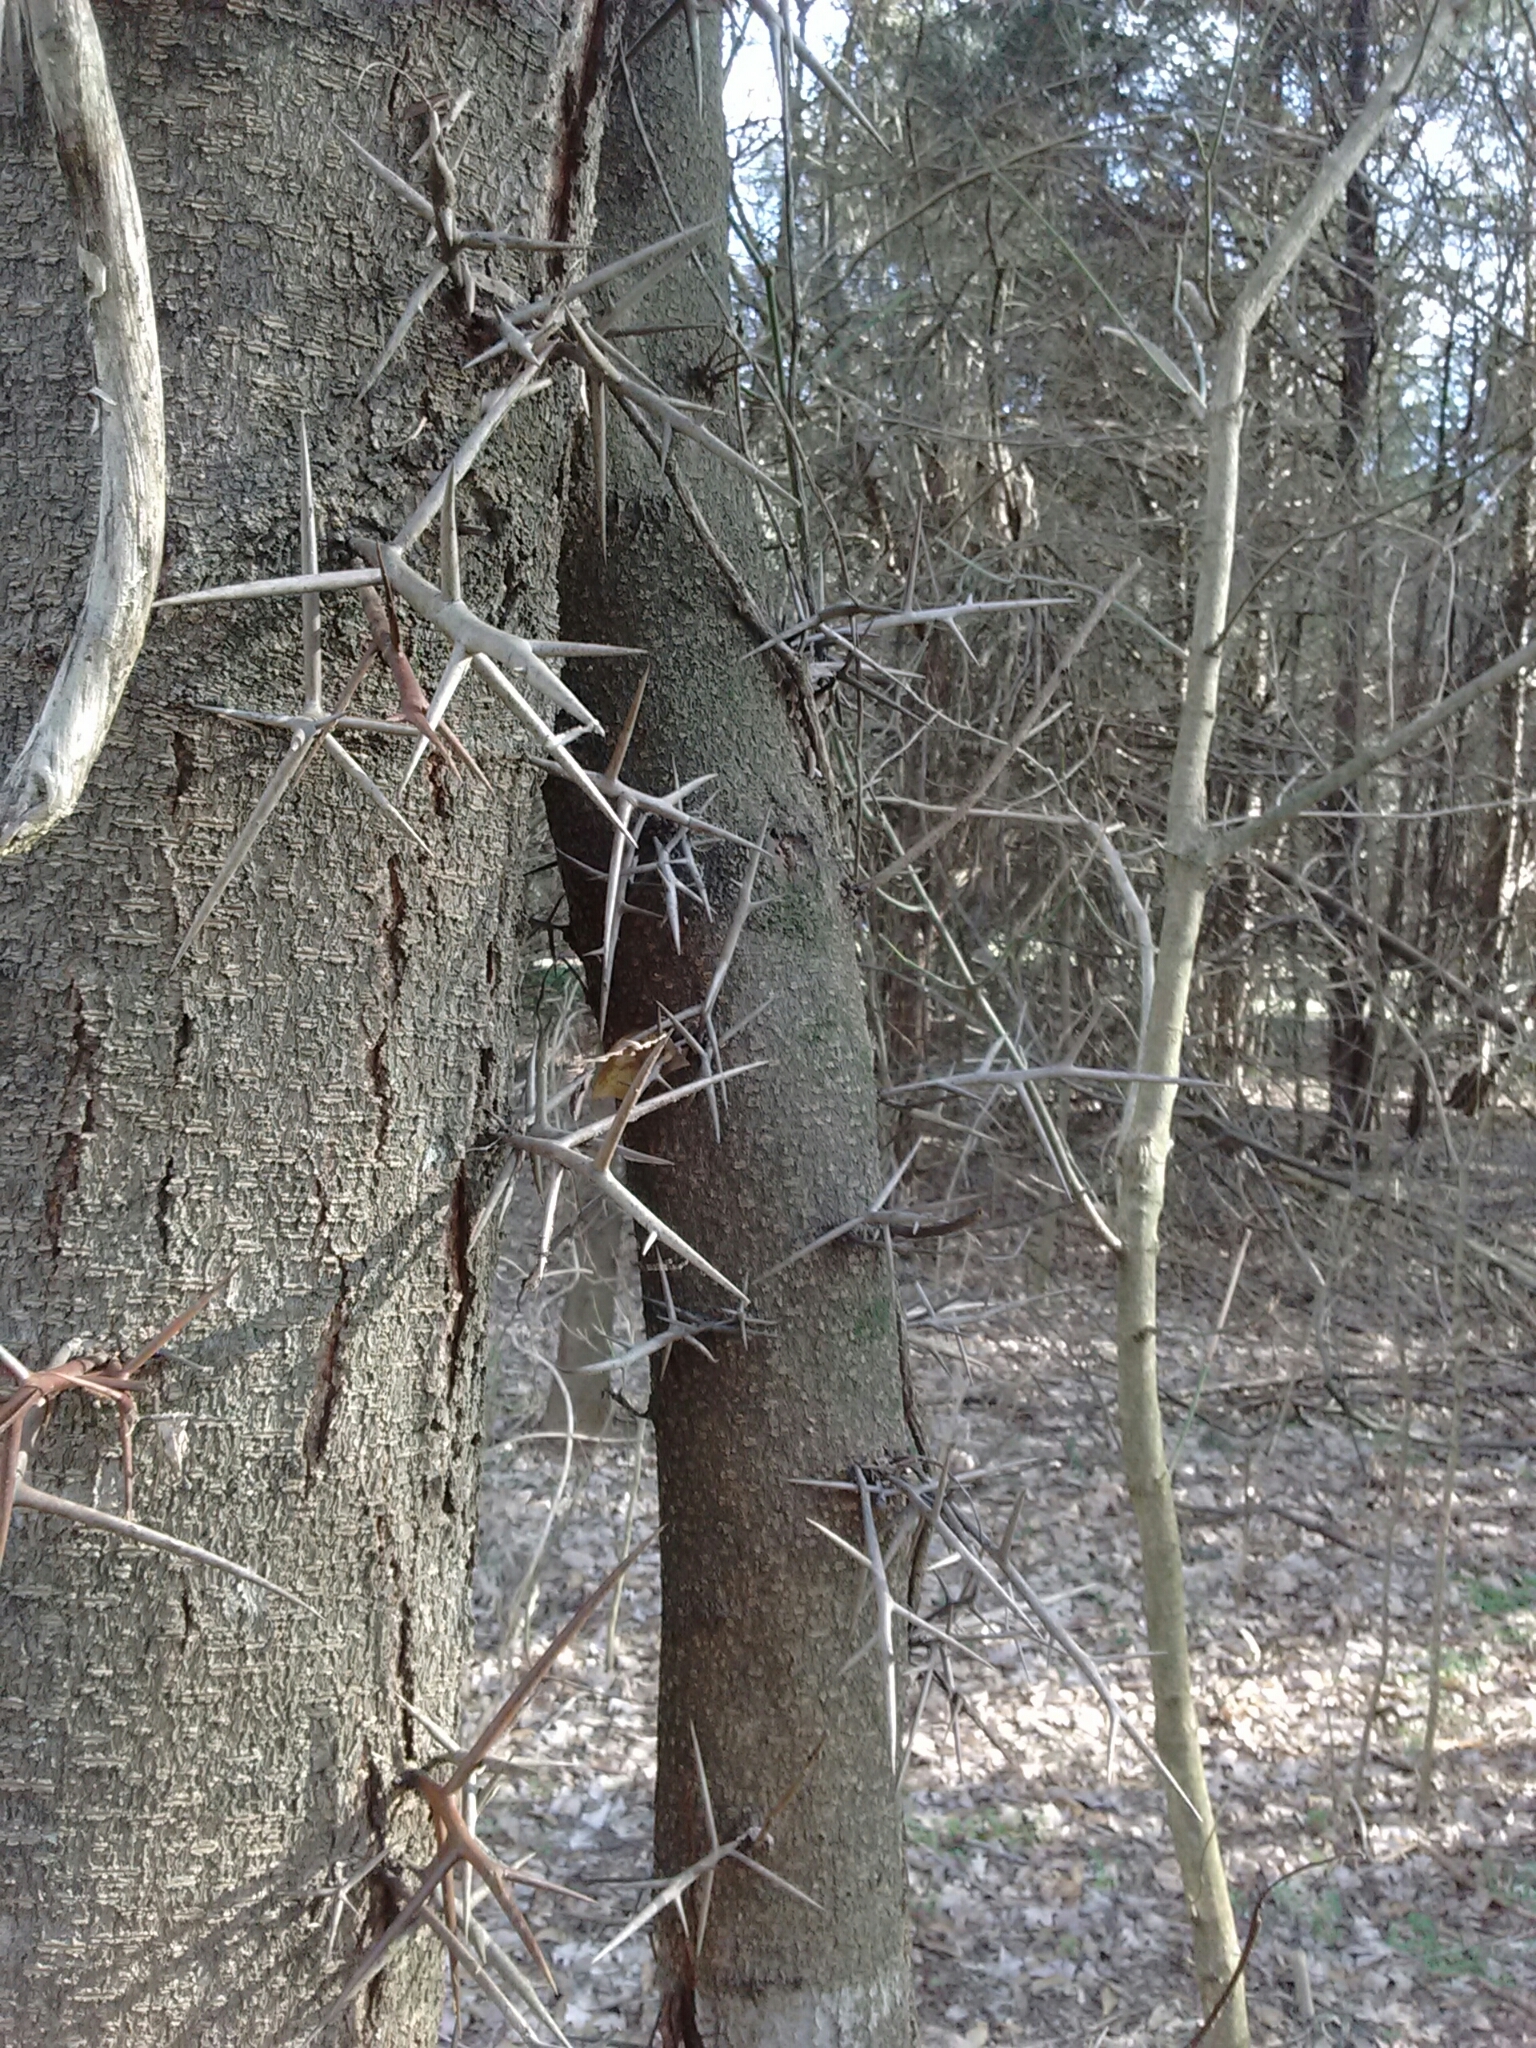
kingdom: Plantae
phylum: Tracheophyta
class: Magnoliopsida
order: Fabales
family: Fabaceae
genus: Gleditsia
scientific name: Gleditsia triacanthos
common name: Common honeylocust
